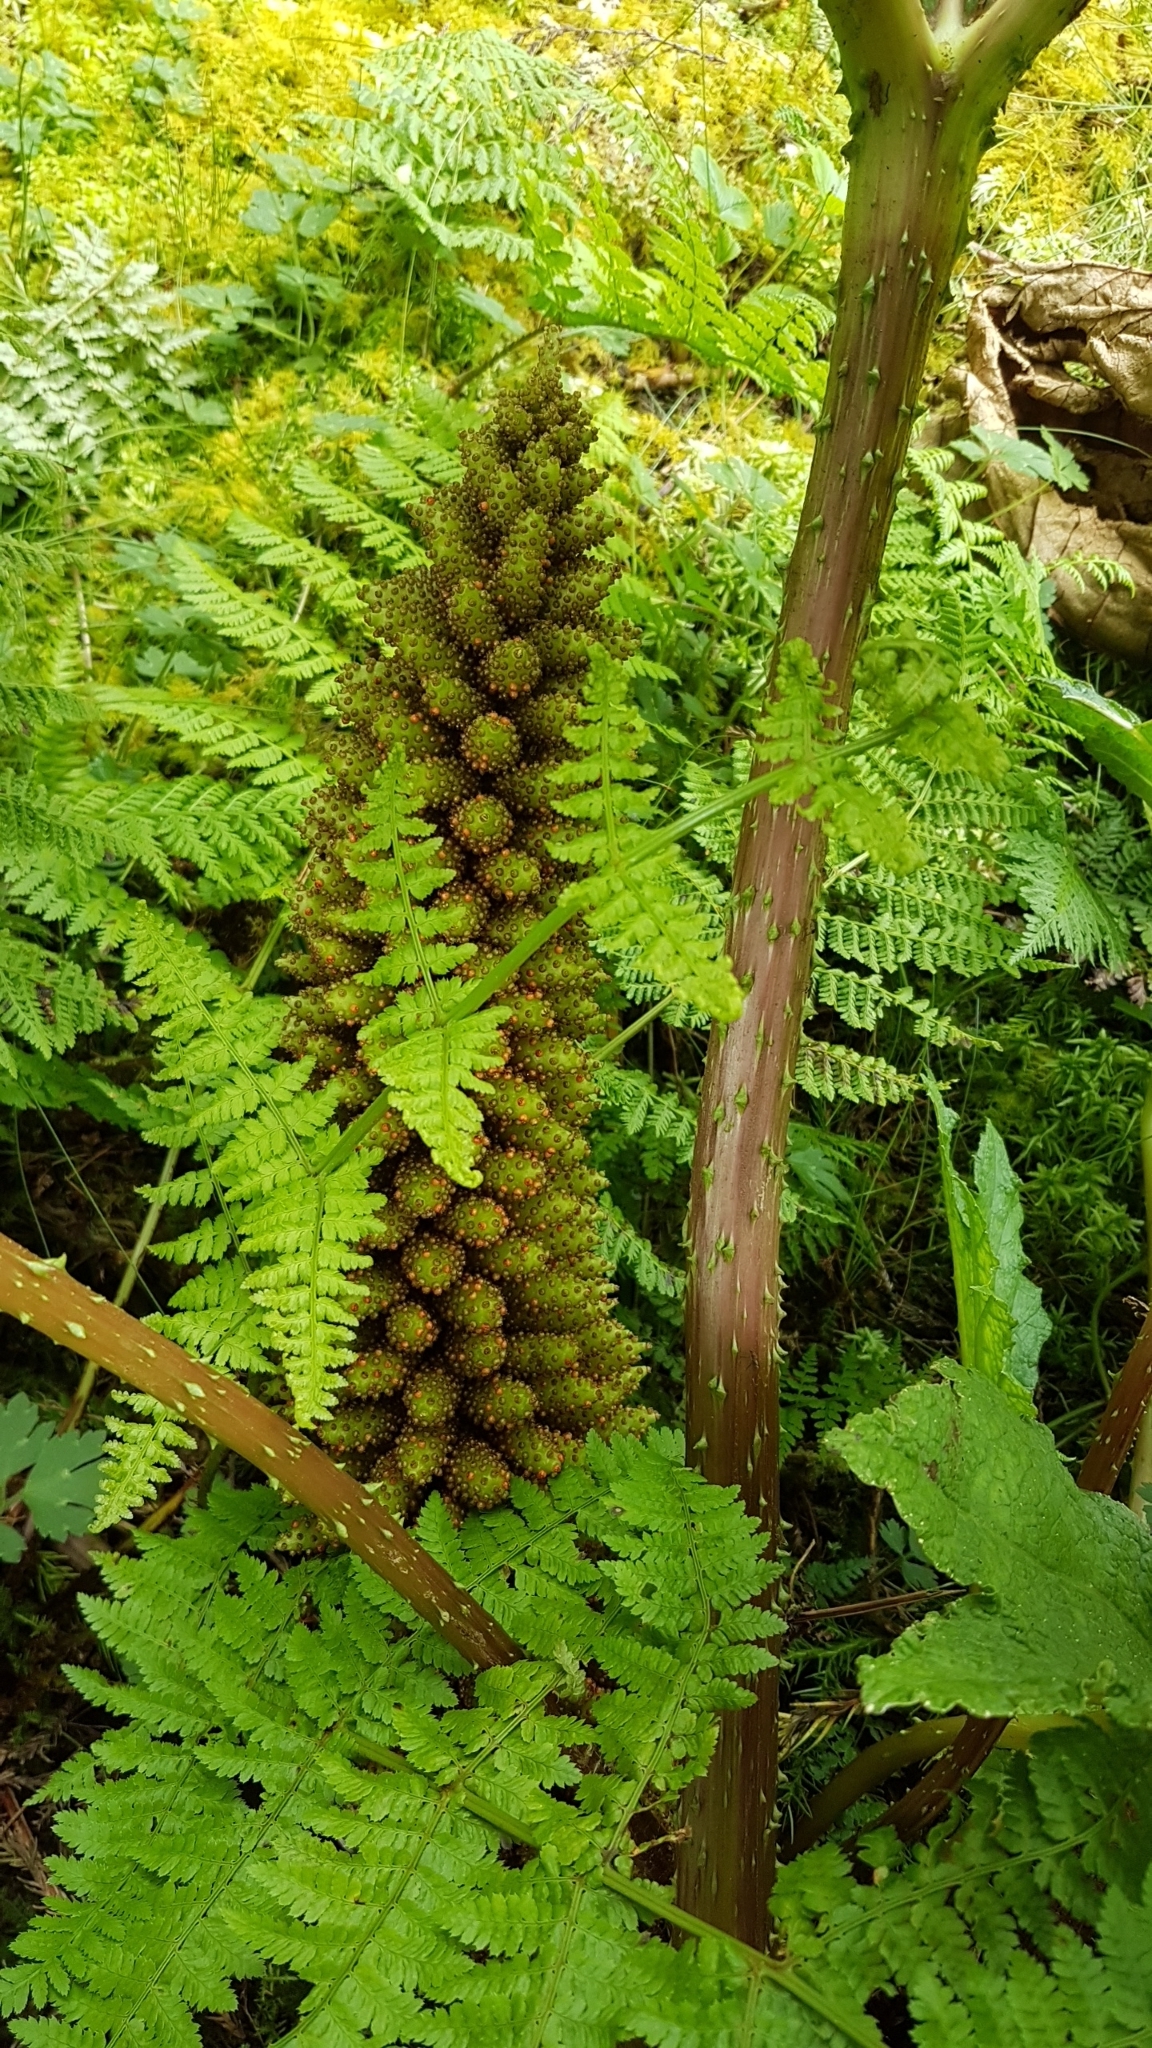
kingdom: Plantae
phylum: Tracheophyta
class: Magnoliopsida
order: Gunnerales
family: Gunneraceae
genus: Gunnera
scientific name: Gunnera tinctoria
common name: Giant-rhubarb
